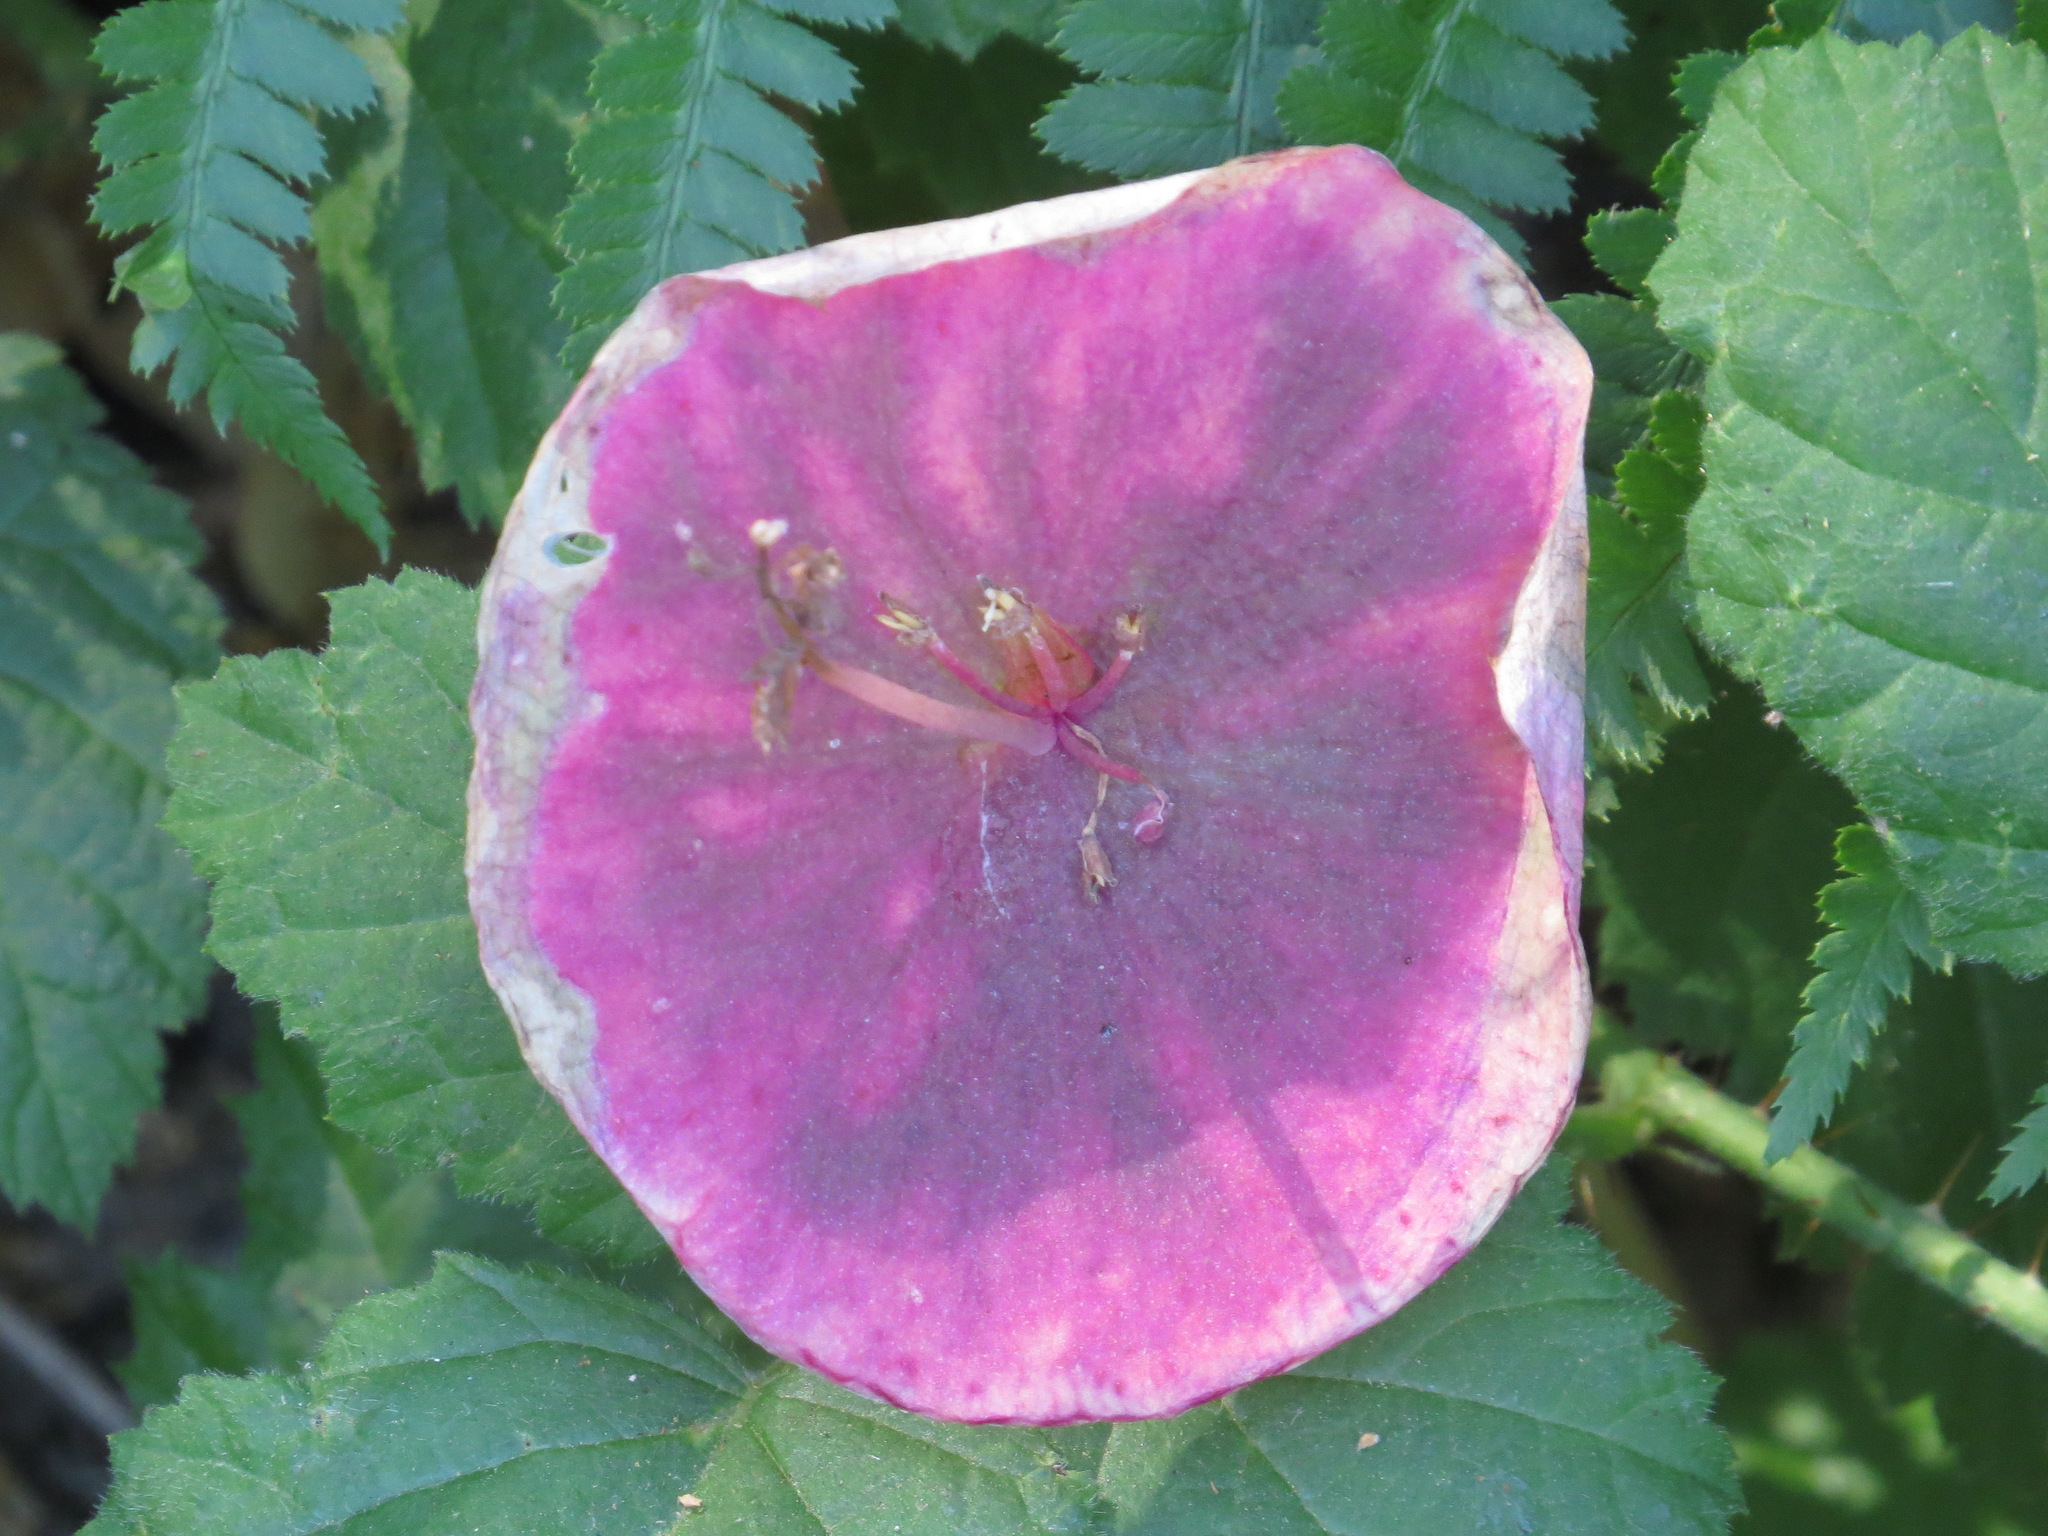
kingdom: Plantae
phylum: Tracheophyta
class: Magnoliopsida
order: Caryophyllales
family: Montiaceae
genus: Claytonia
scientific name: Claytonia perfoliata
